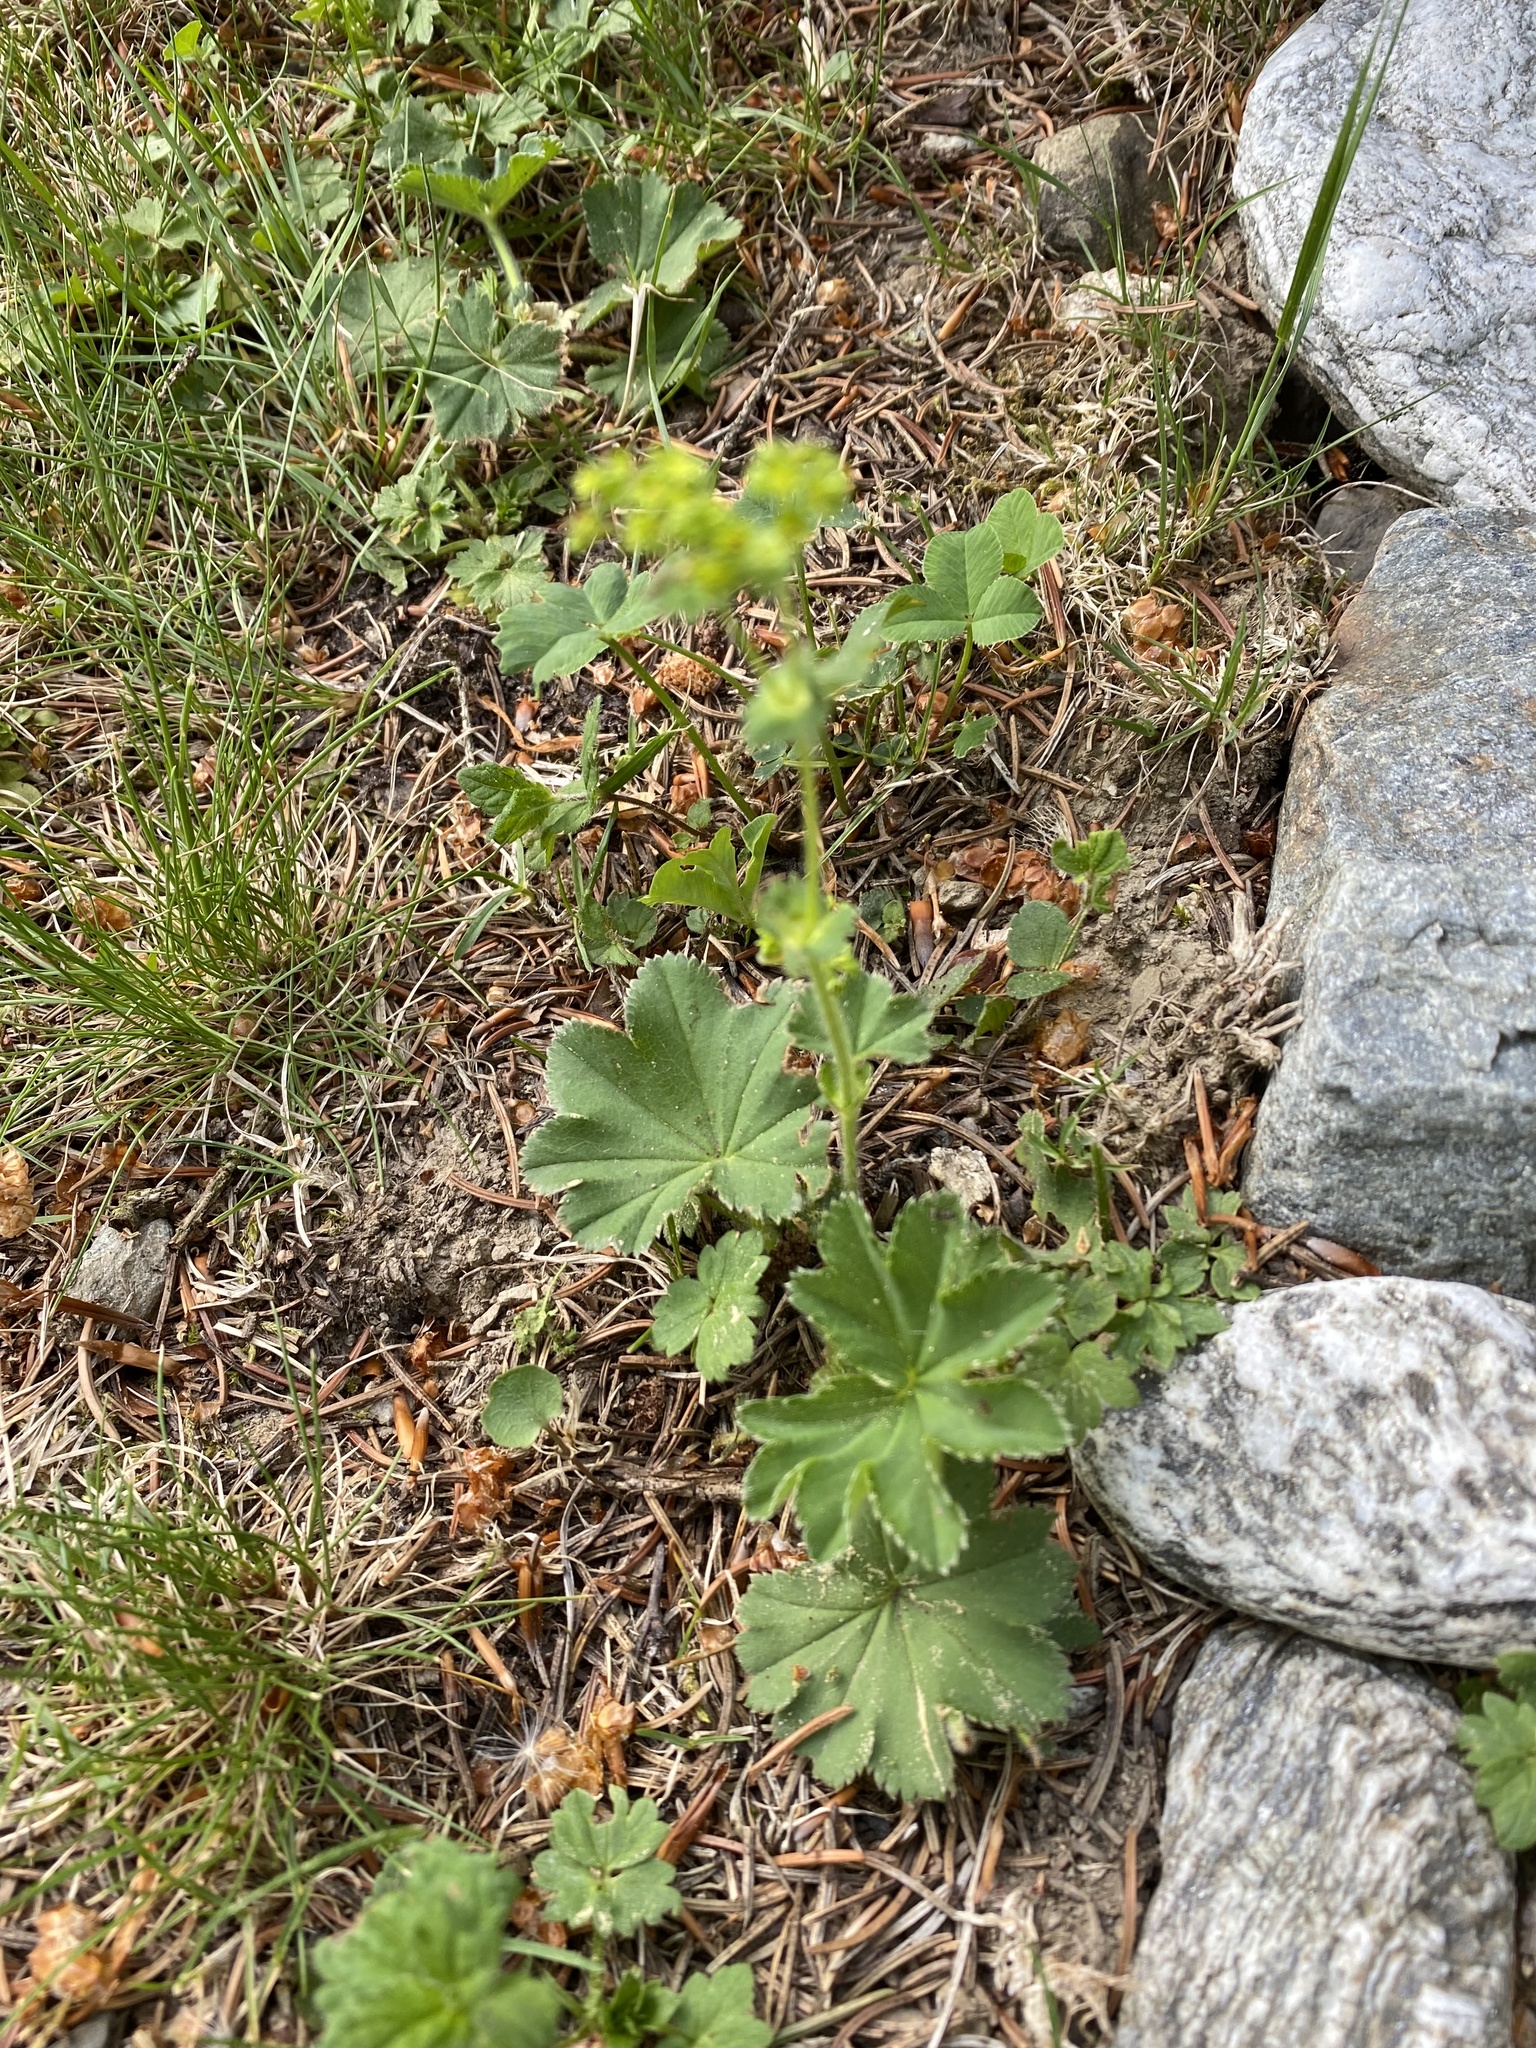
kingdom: Plantae
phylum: Tracheophyta
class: Magnoliopsida
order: Rosales
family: Rosaceae
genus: Alchemilla
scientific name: Alchemilla monticola
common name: Hairy lady's mantle
